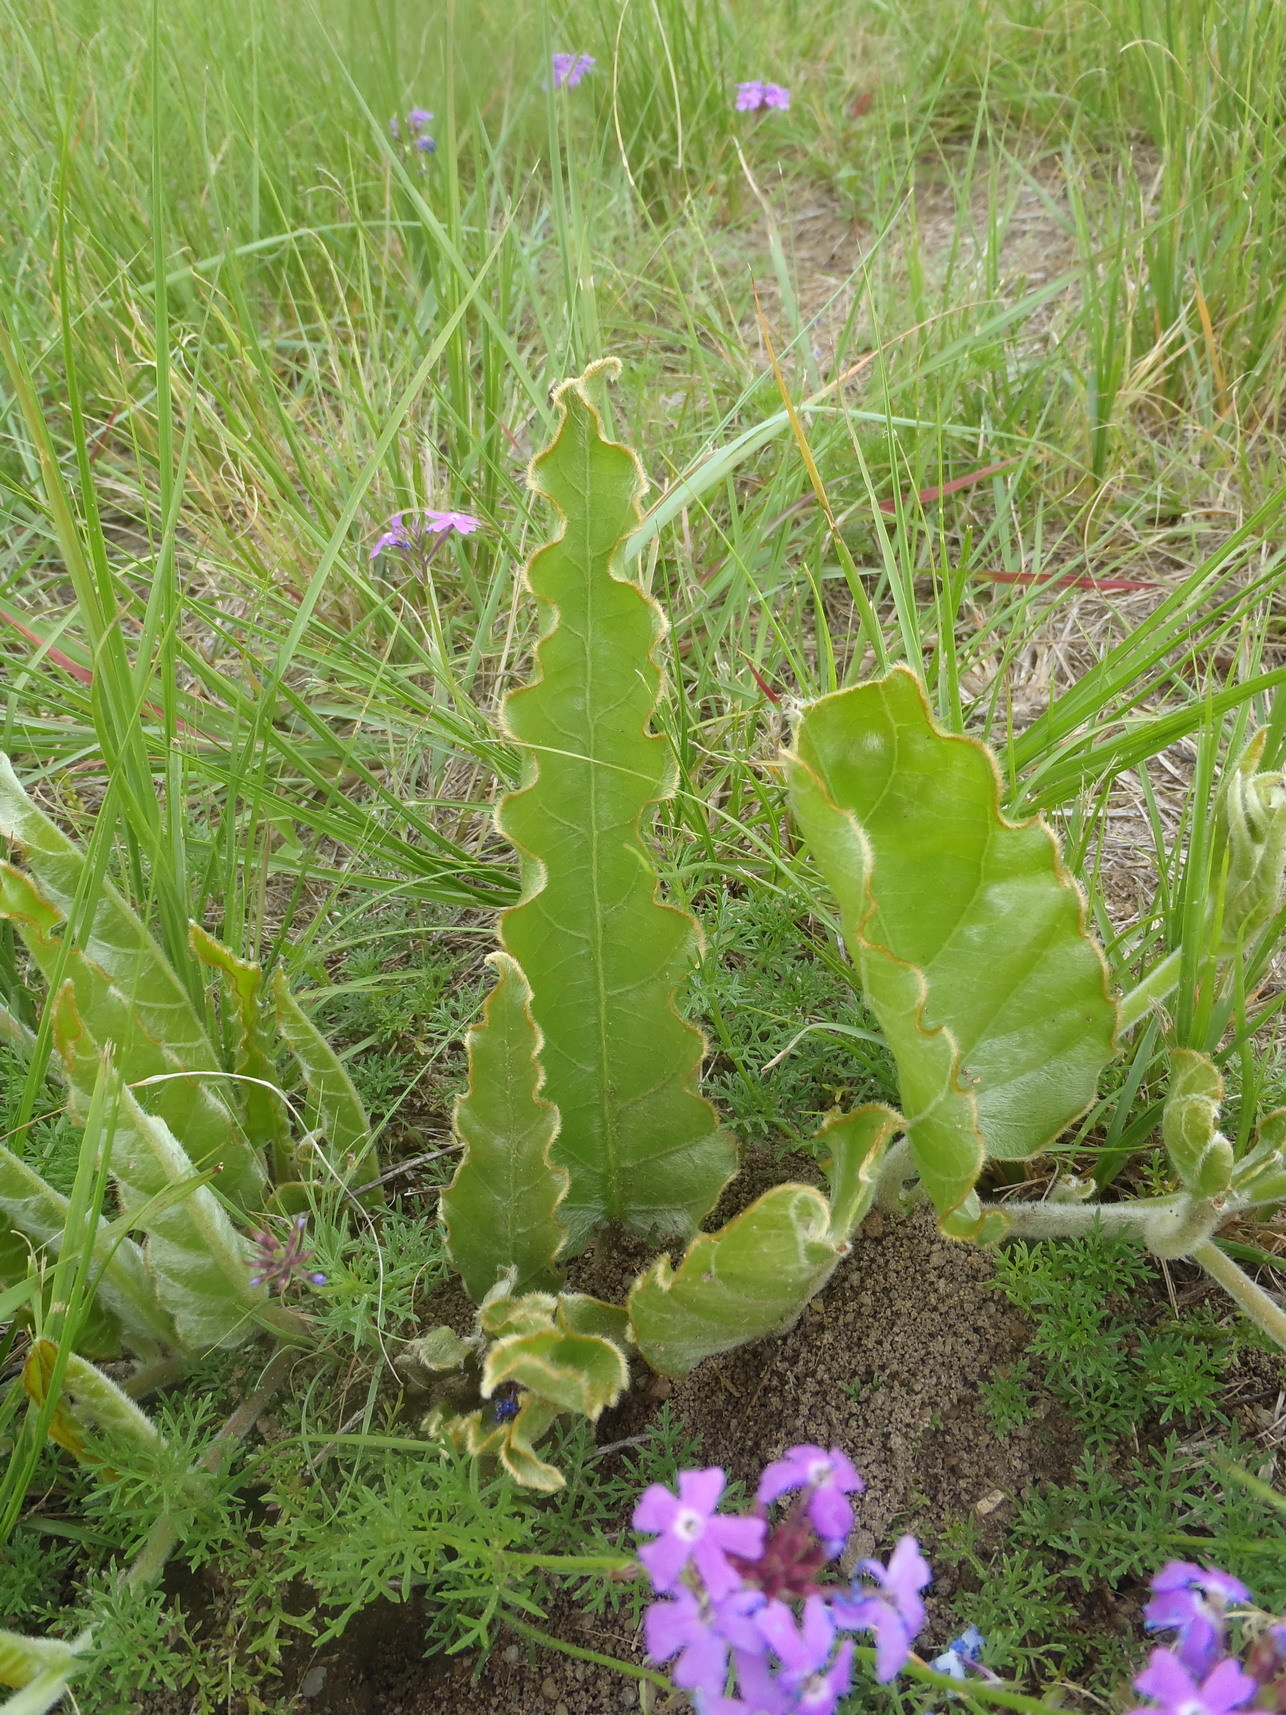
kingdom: Plantae
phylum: Tracheophyta
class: Magnoliopsida
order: Solanales
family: Convolvulaceae
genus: Ipomoea
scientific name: Ipomoea ommanneyi
